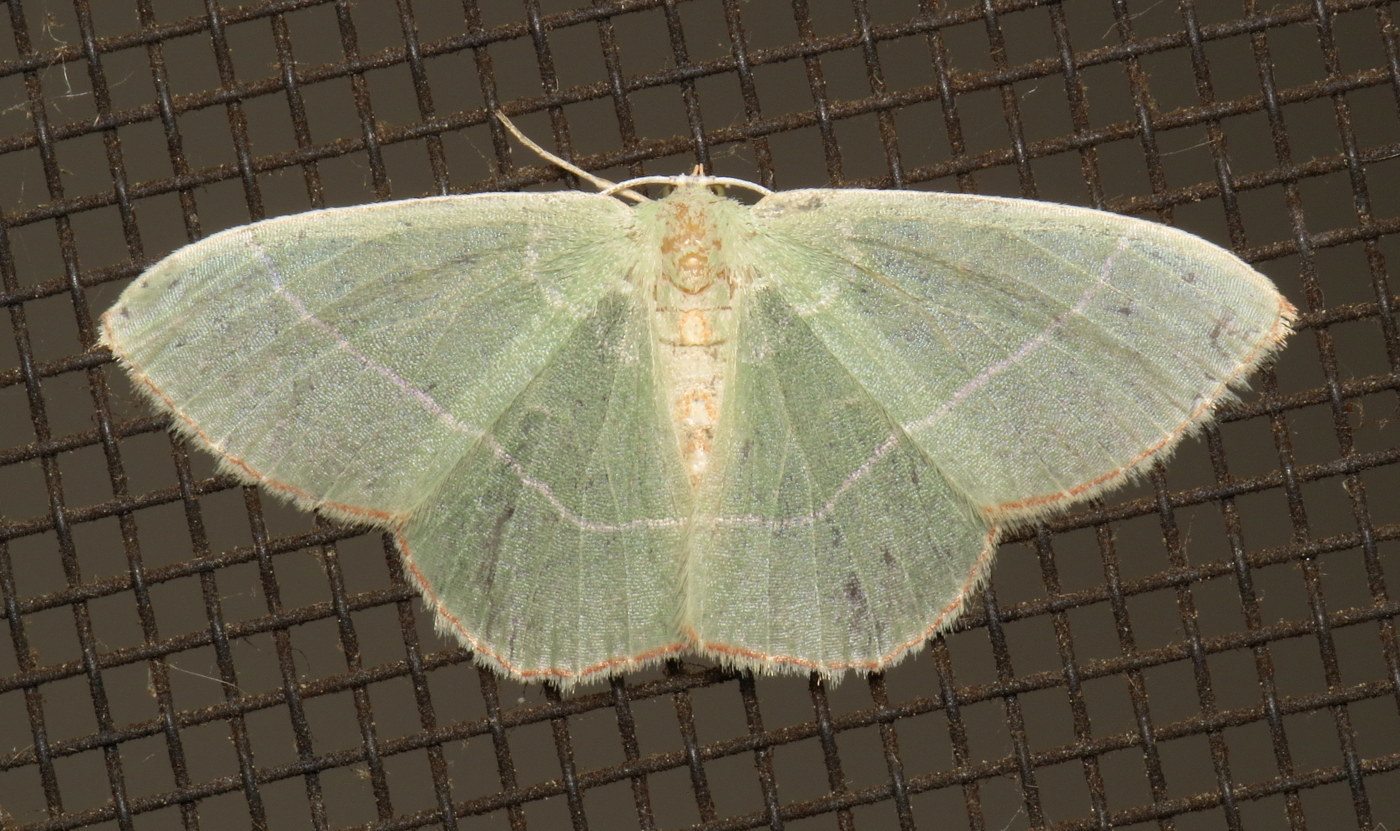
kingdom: Animalia
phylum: Arthropoda
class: Insecta
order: Lepidoptera
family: Geometridae
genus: Nemoria
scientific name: Nemoria bistriaria
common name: Red-fringed emerald
